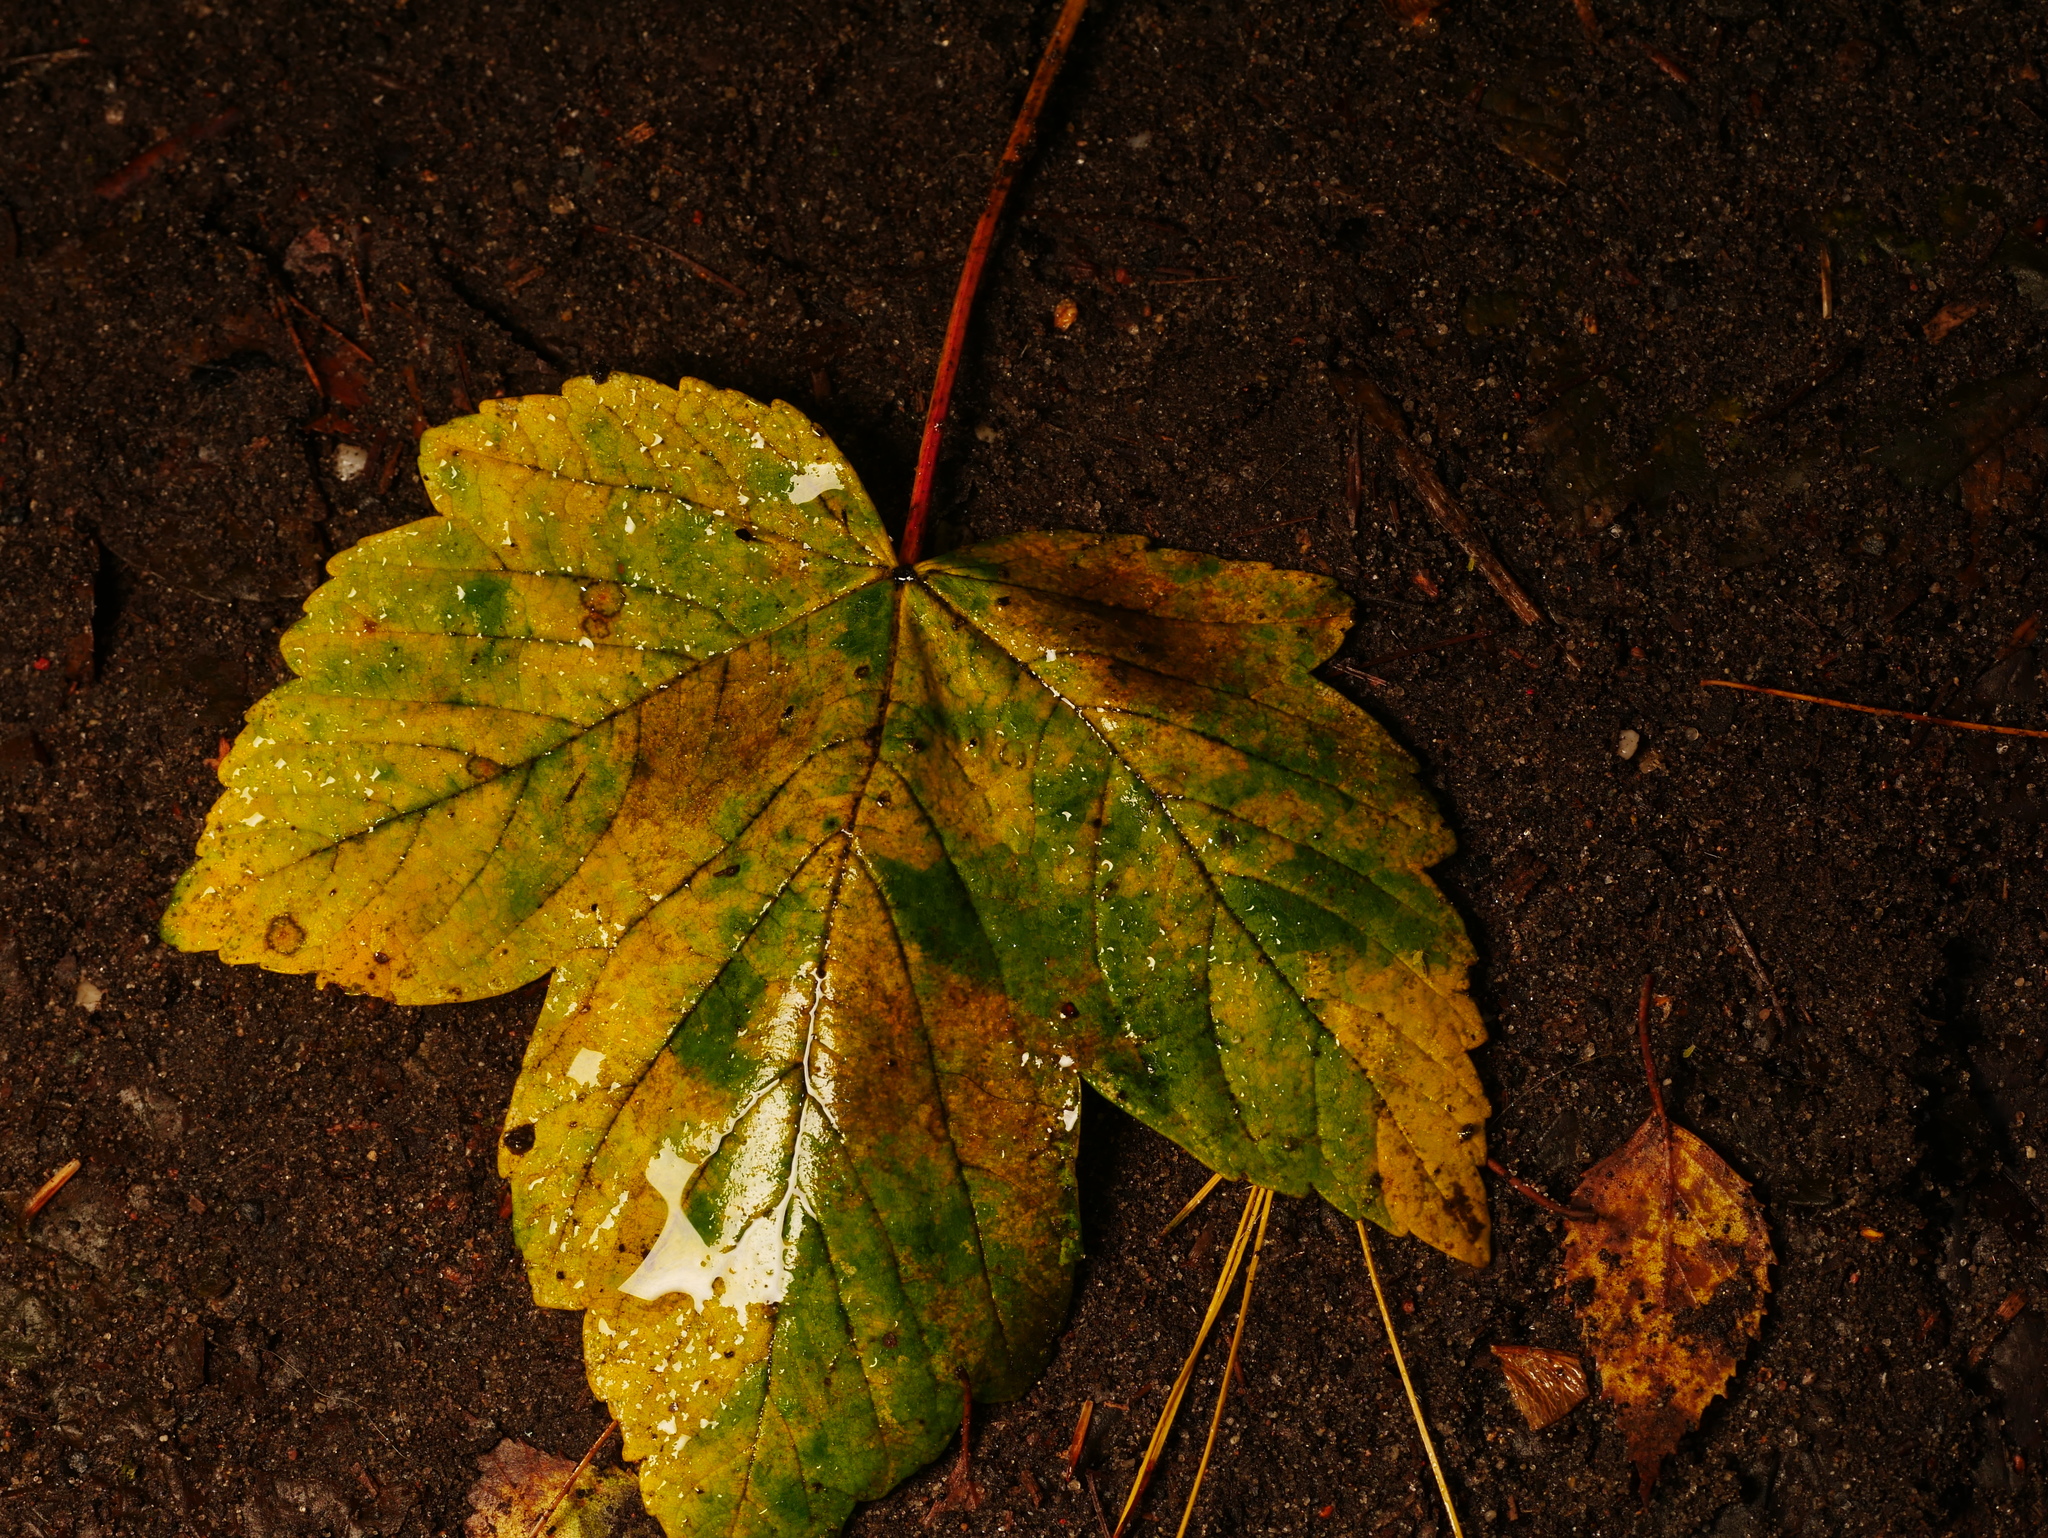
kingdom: Plantae
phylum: Tracheophyta
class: Magnoliopsida
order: Sapindales
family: Sapindaceae
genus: Acer
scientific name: Acer pseudoplatanus
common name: Sycamore
